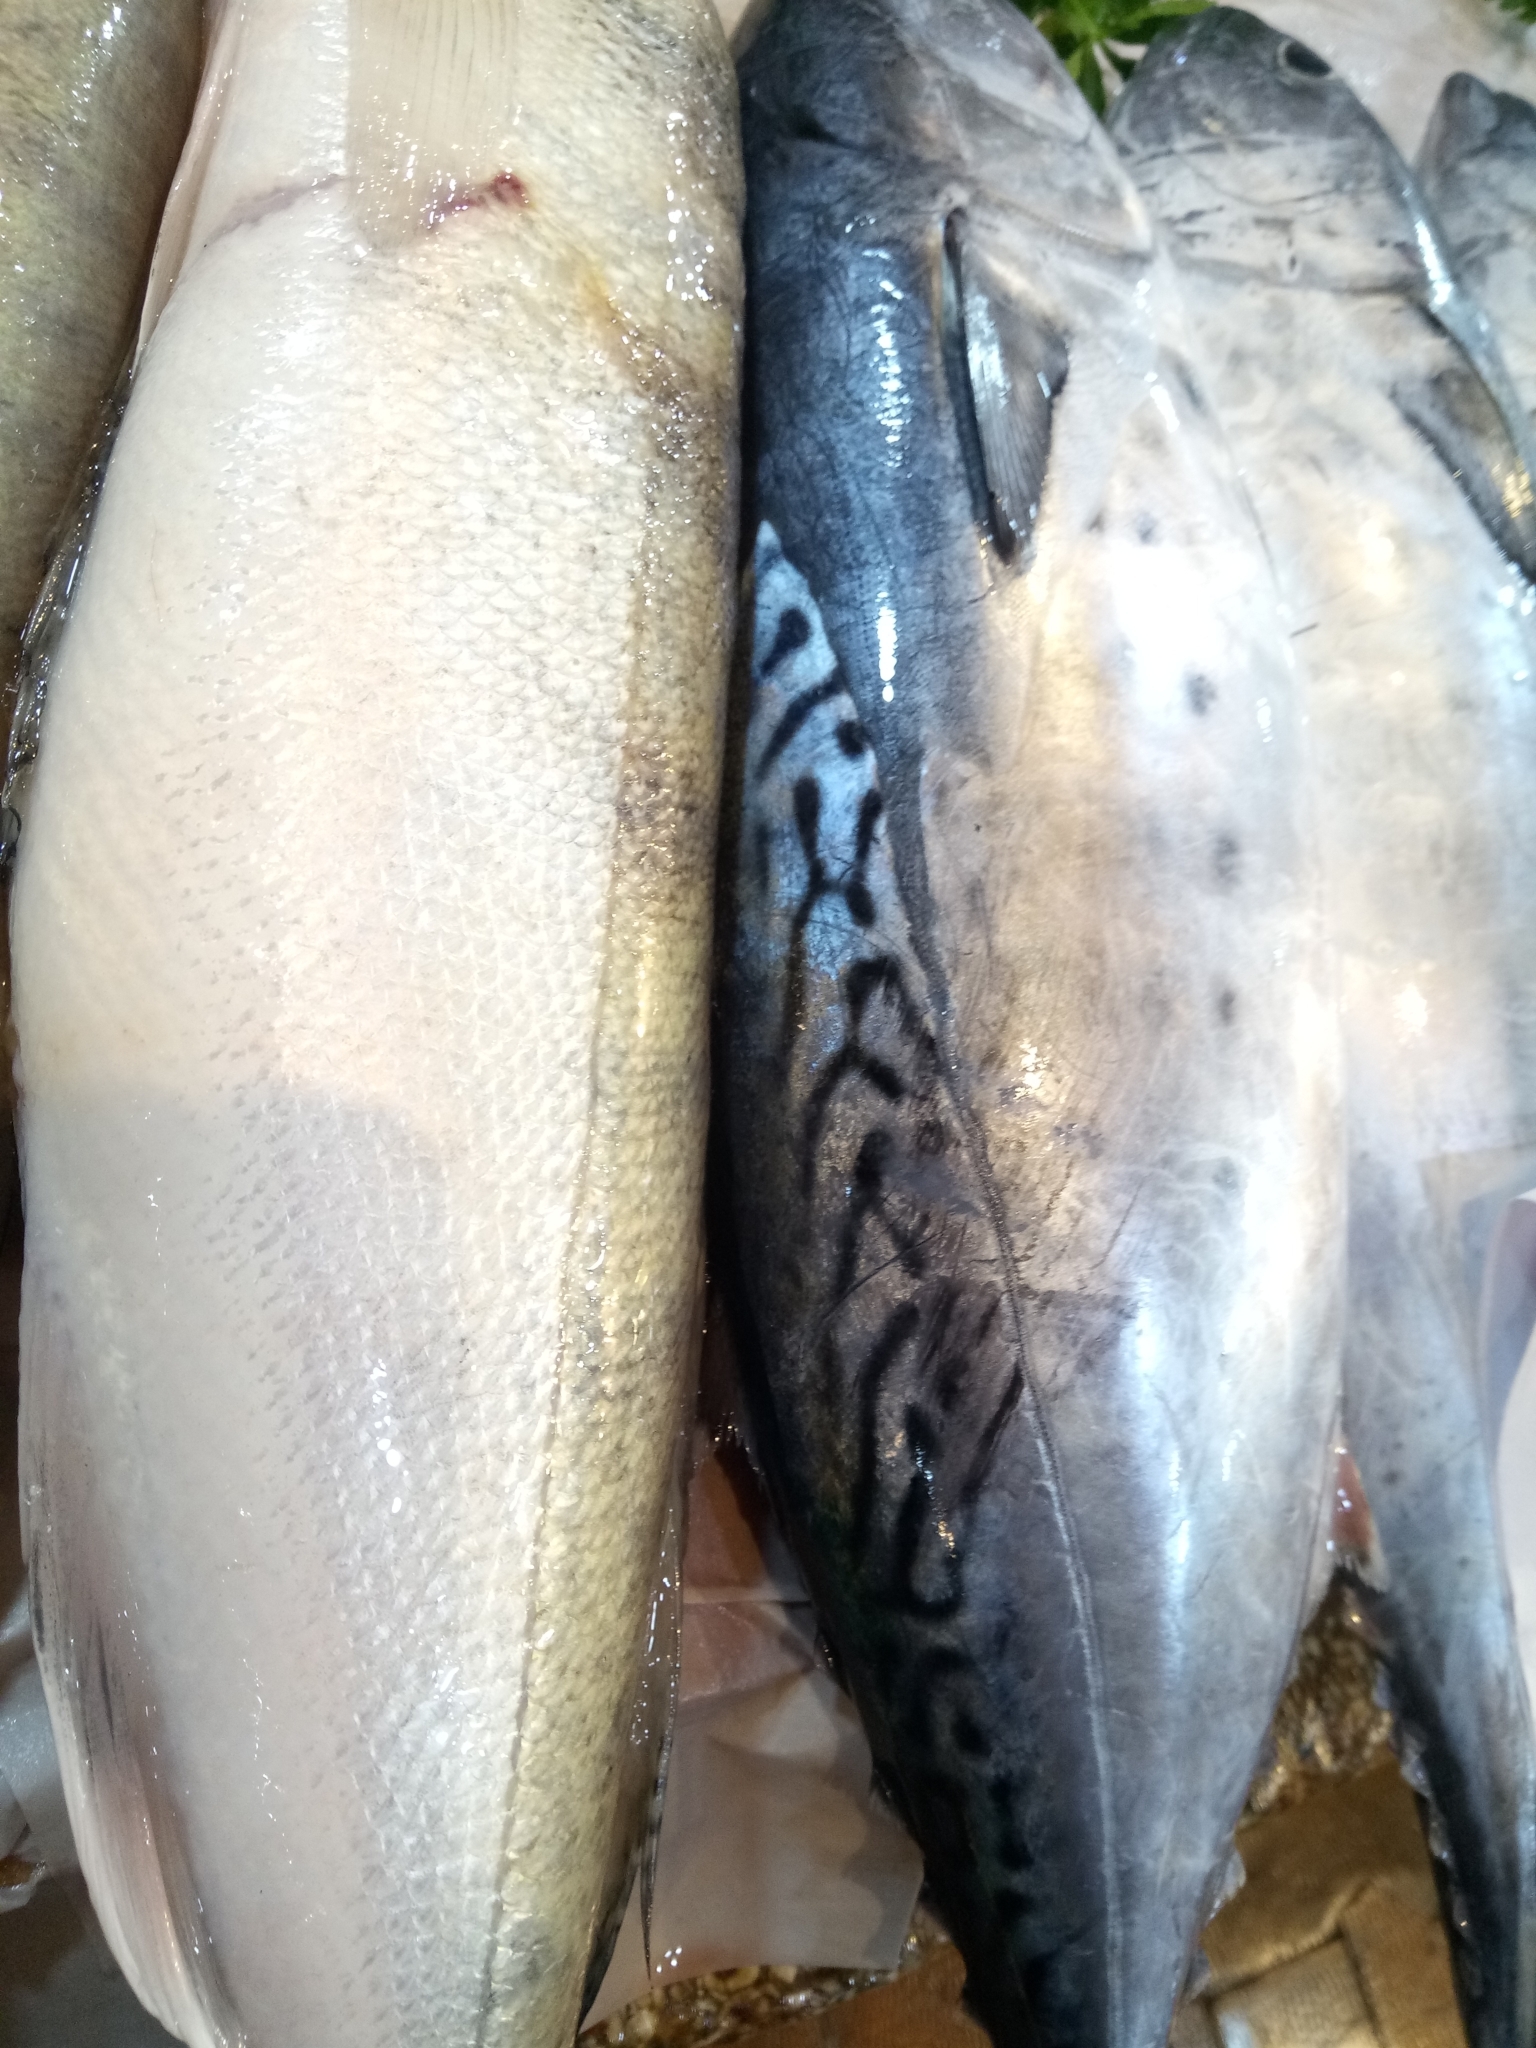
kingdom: Animalia
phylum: Chordata
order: Perciformes
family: Scombridae
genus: Euthynnus
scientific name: Euthynnus alletteratus
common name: Little tunny
